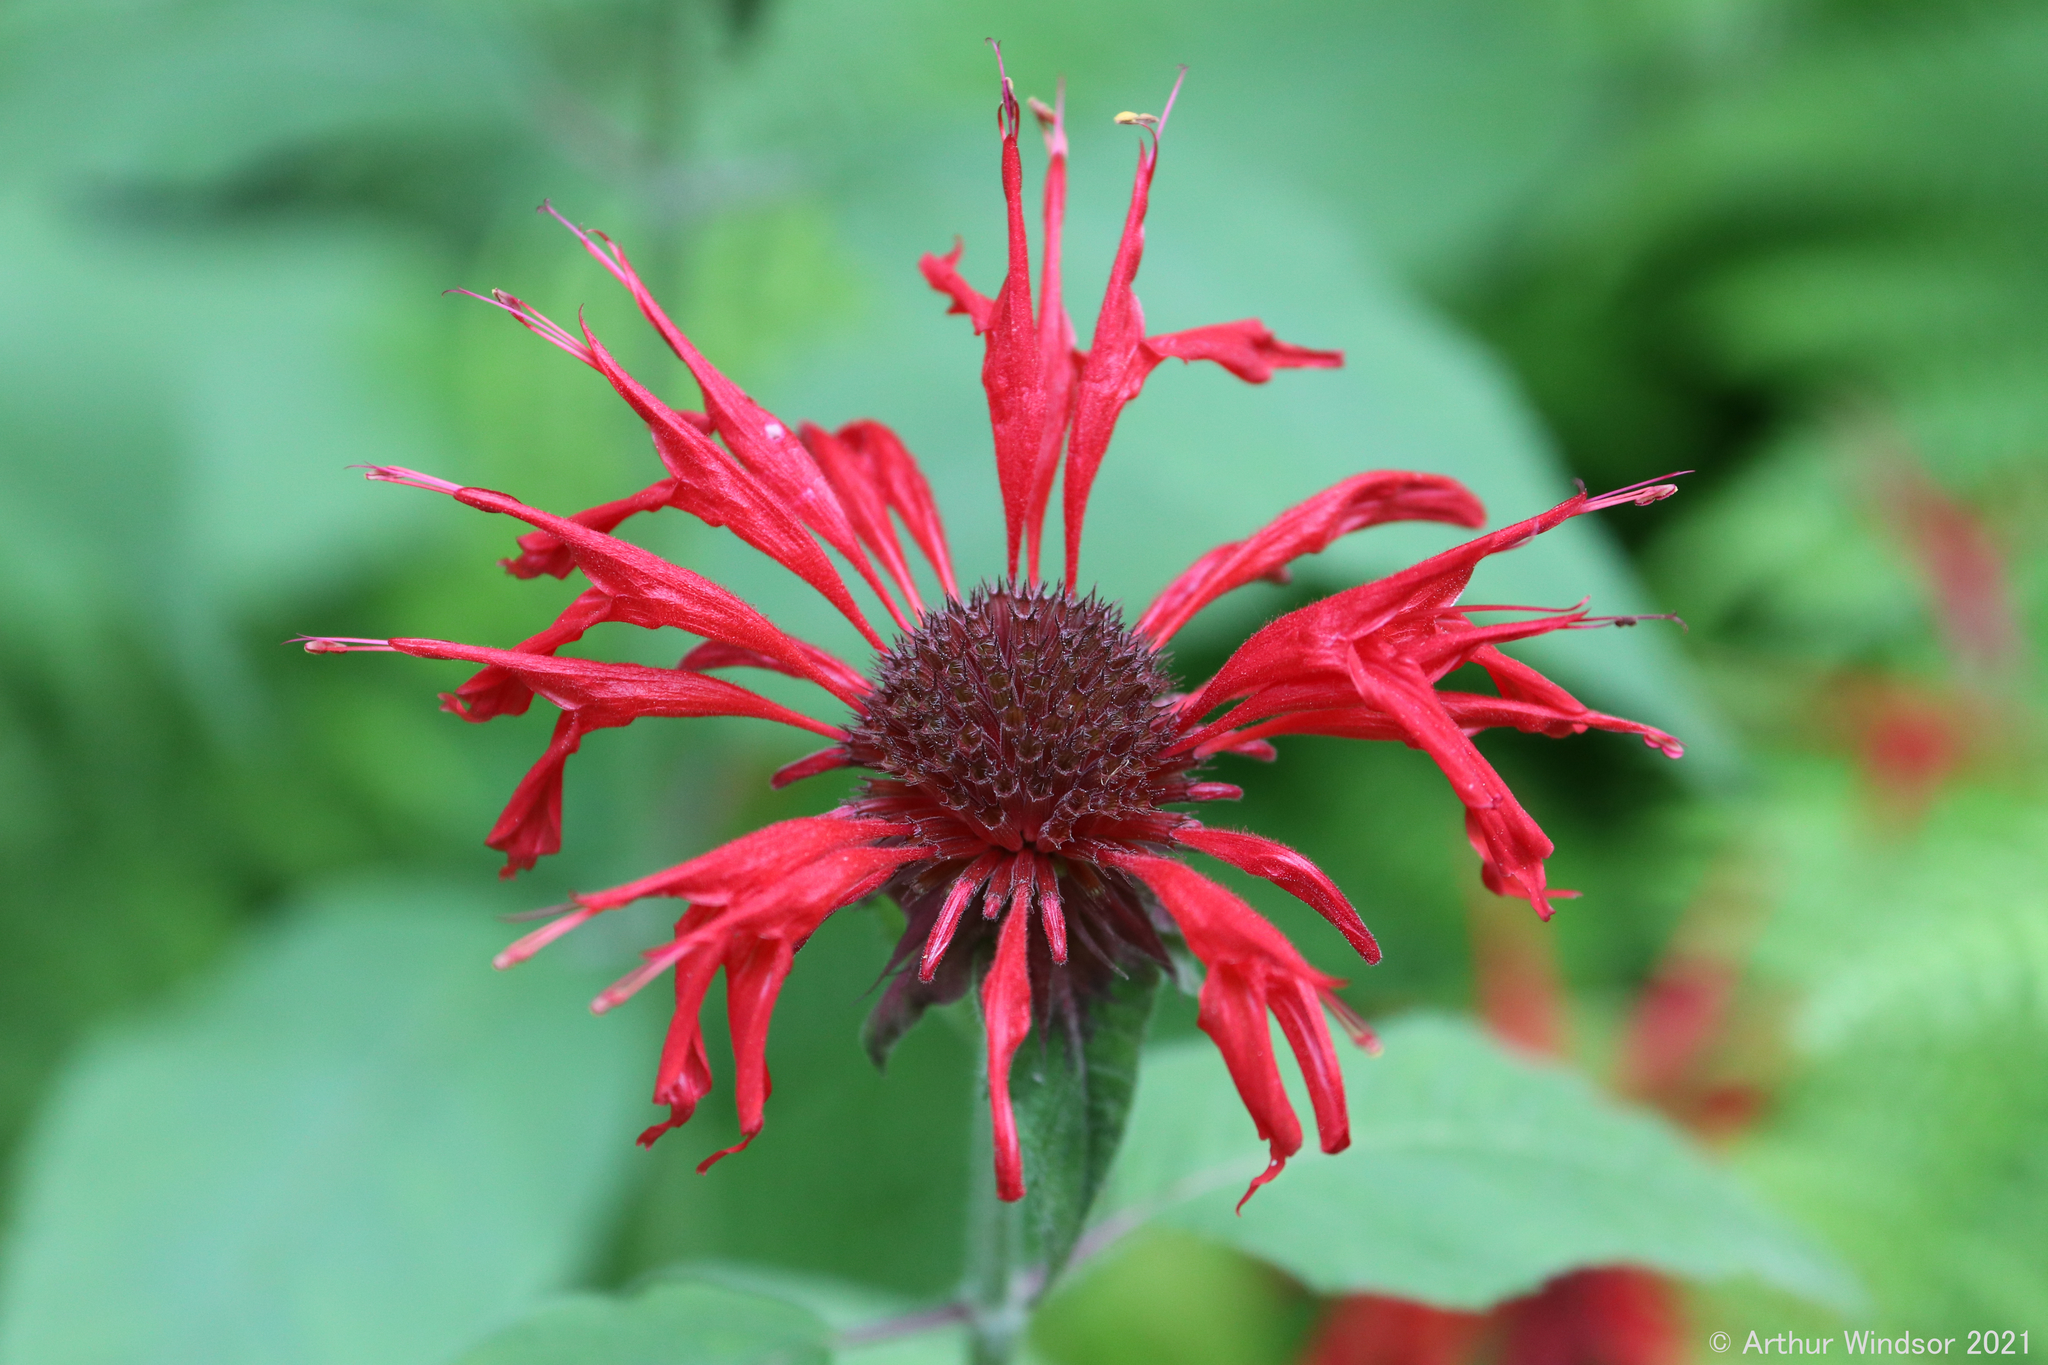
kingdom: Plantae
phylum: Tracheophyta
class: Magnoliopsida
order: Lamiales
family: Lamiaceae
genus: Monarda
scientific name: Monarda didyma
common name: Beebalm
